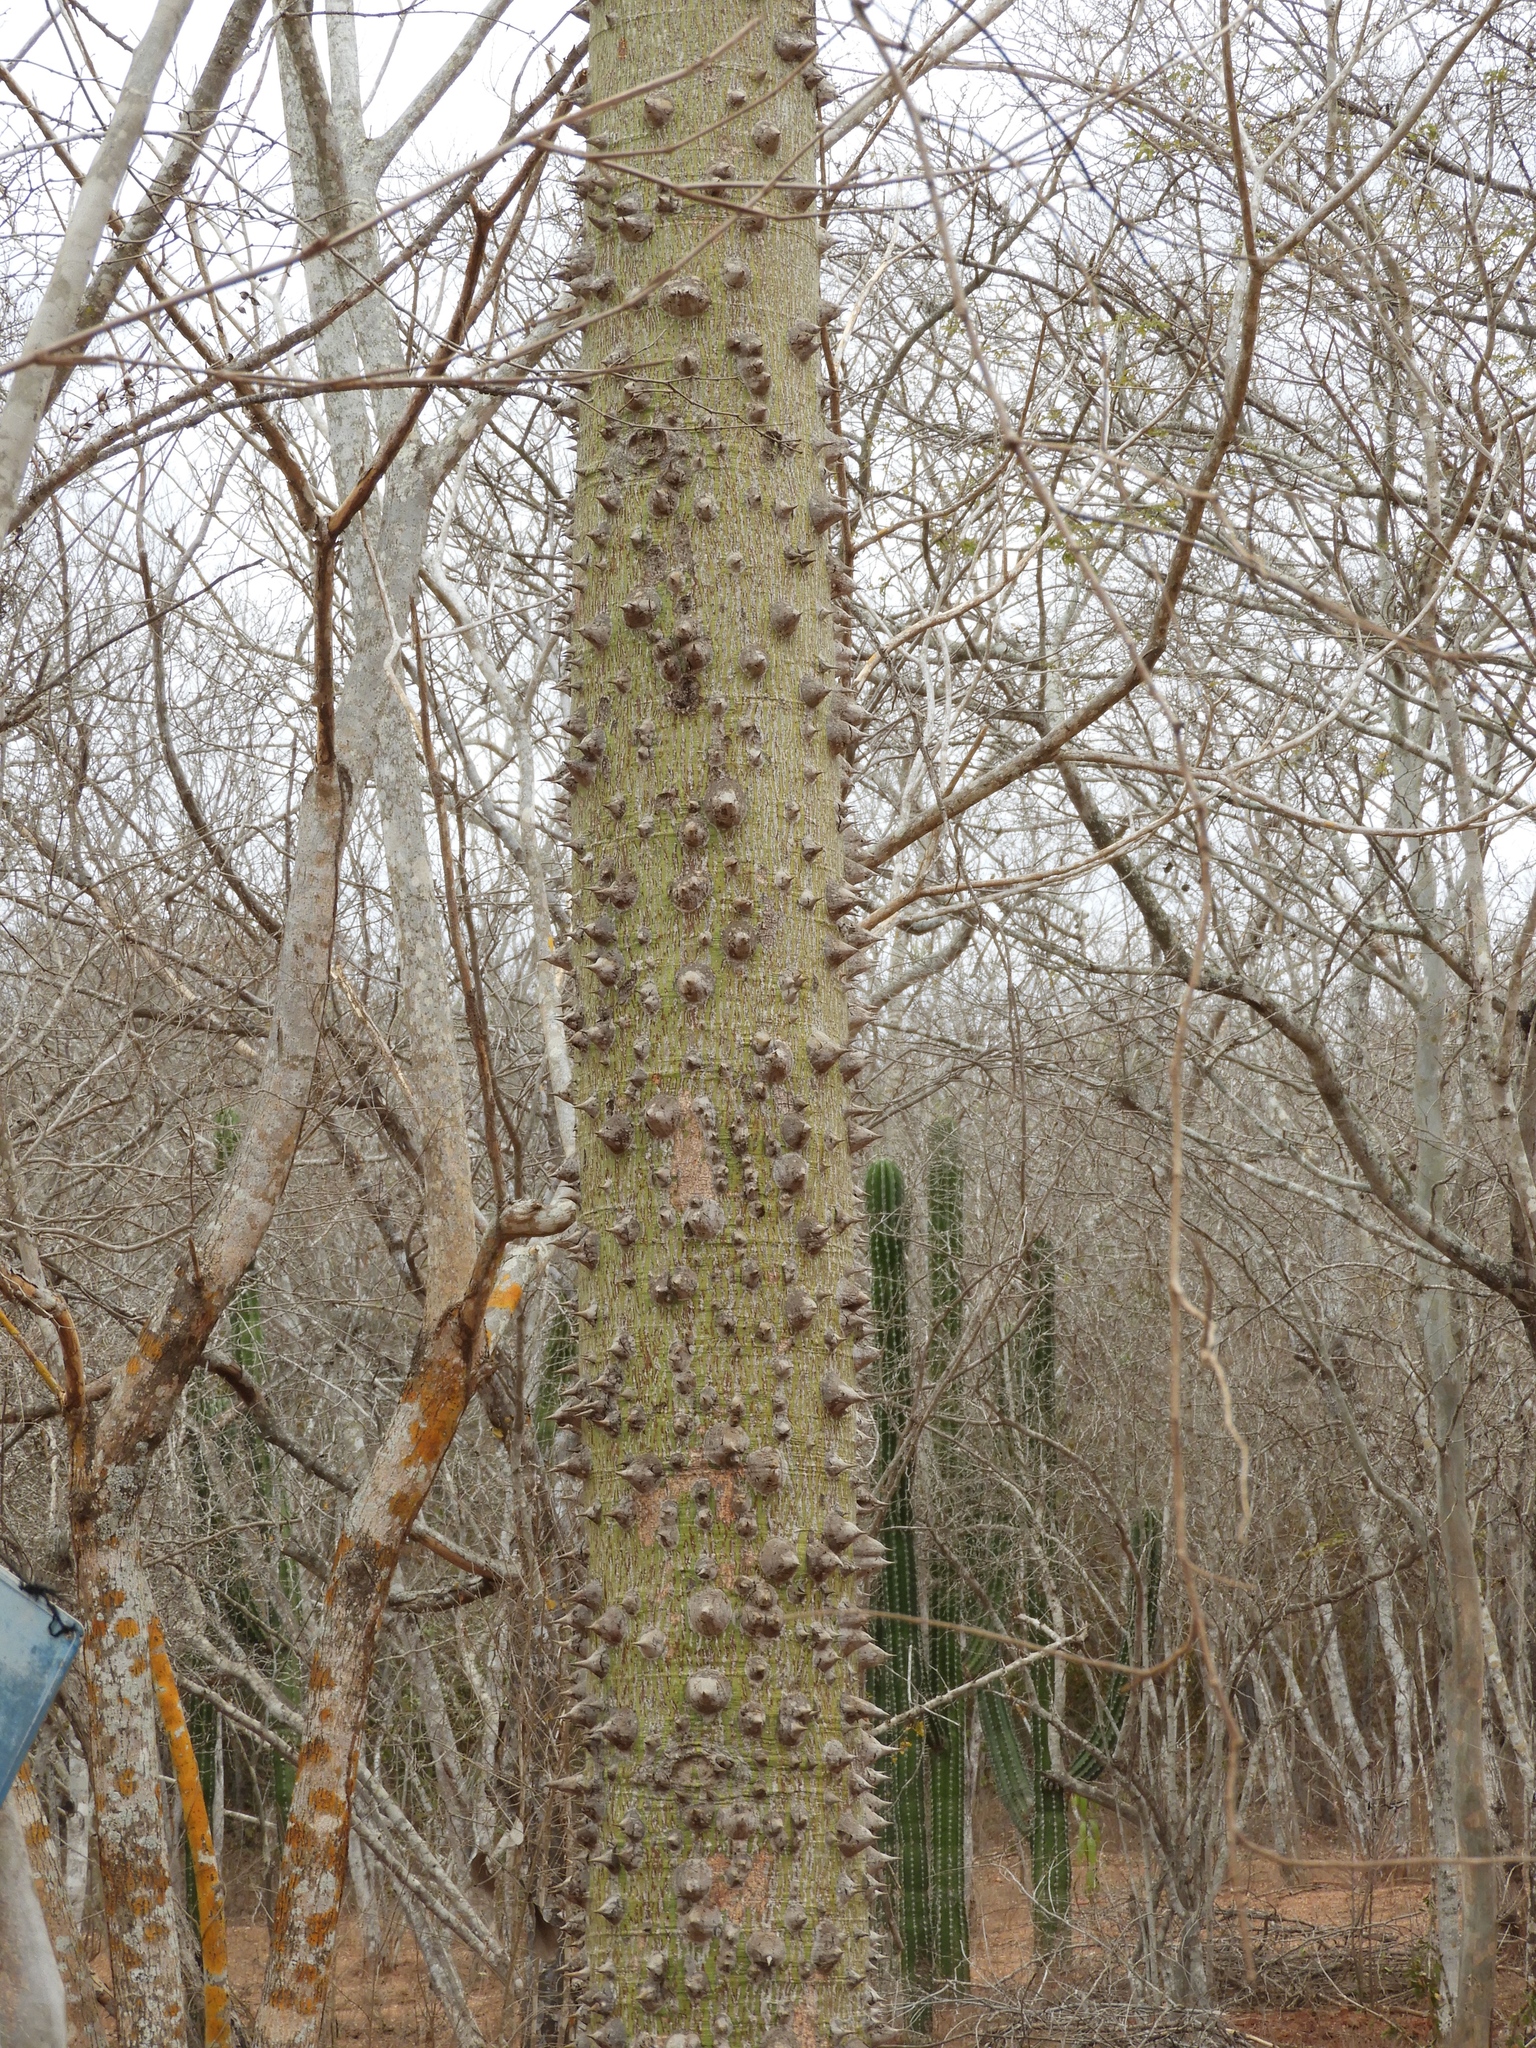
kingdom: Plantae
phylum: Tracheophyta
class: Magnoliopsida
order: Malvales
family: Malvaceae
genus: Ceiba
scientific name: Ceiba pentandra
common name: Kapok
